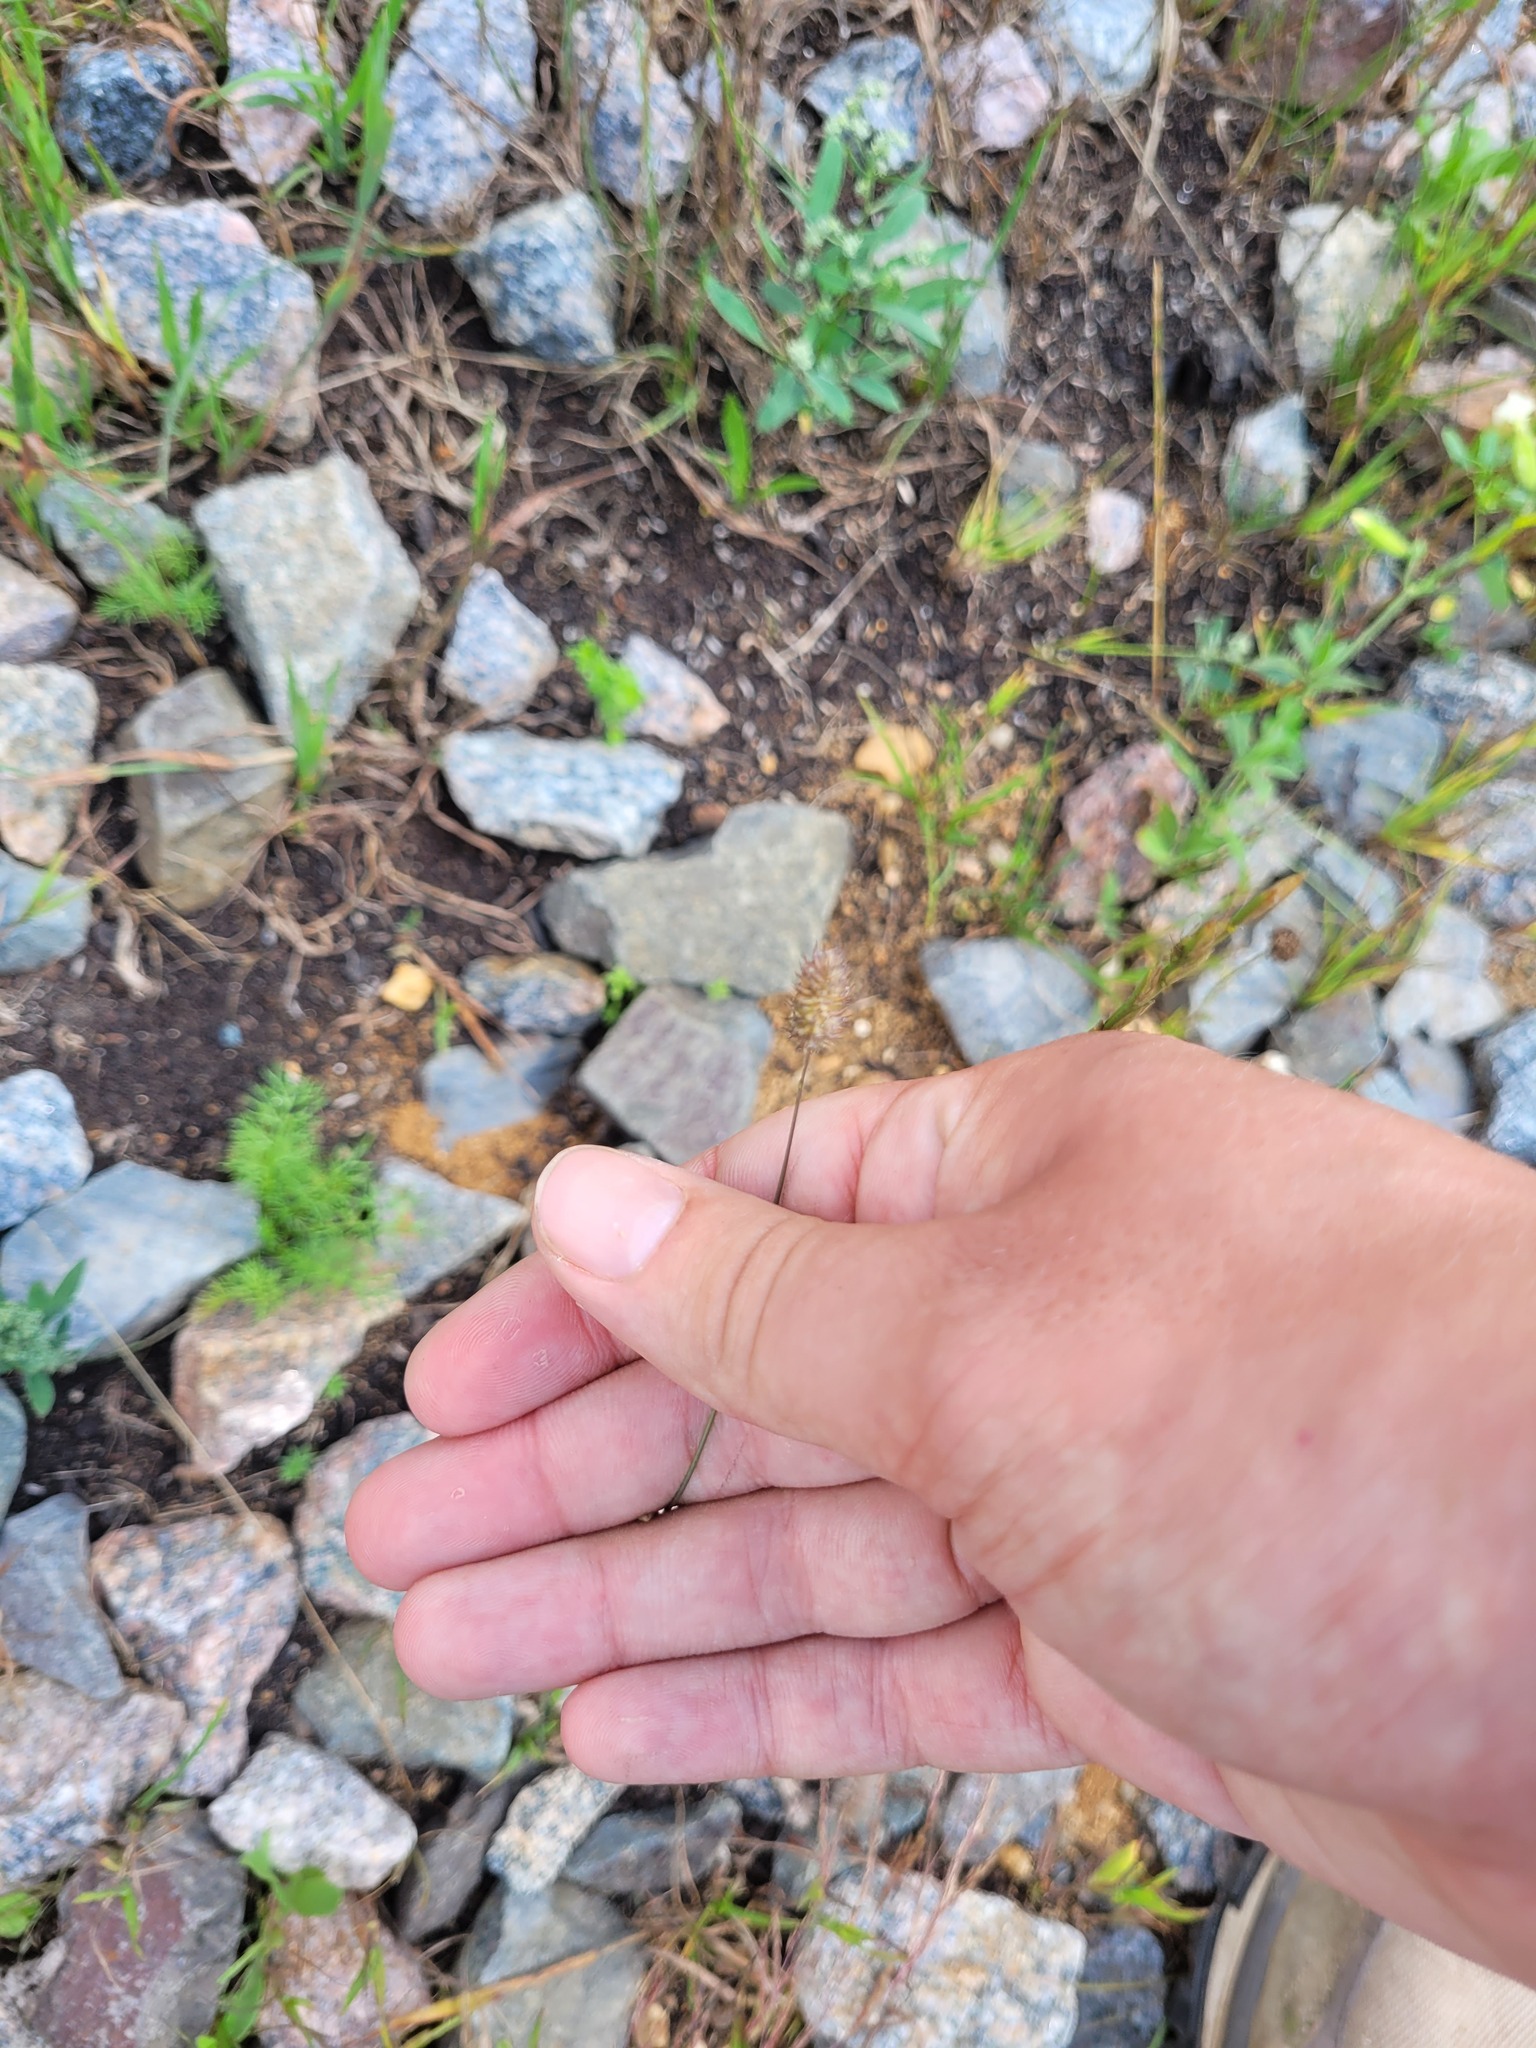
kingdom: Plantae
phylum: Tracheophyta
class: Liliopsida
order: Poales
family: Poaceae
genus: Phleum
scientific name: Phleum pratense
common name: Timothy grass
